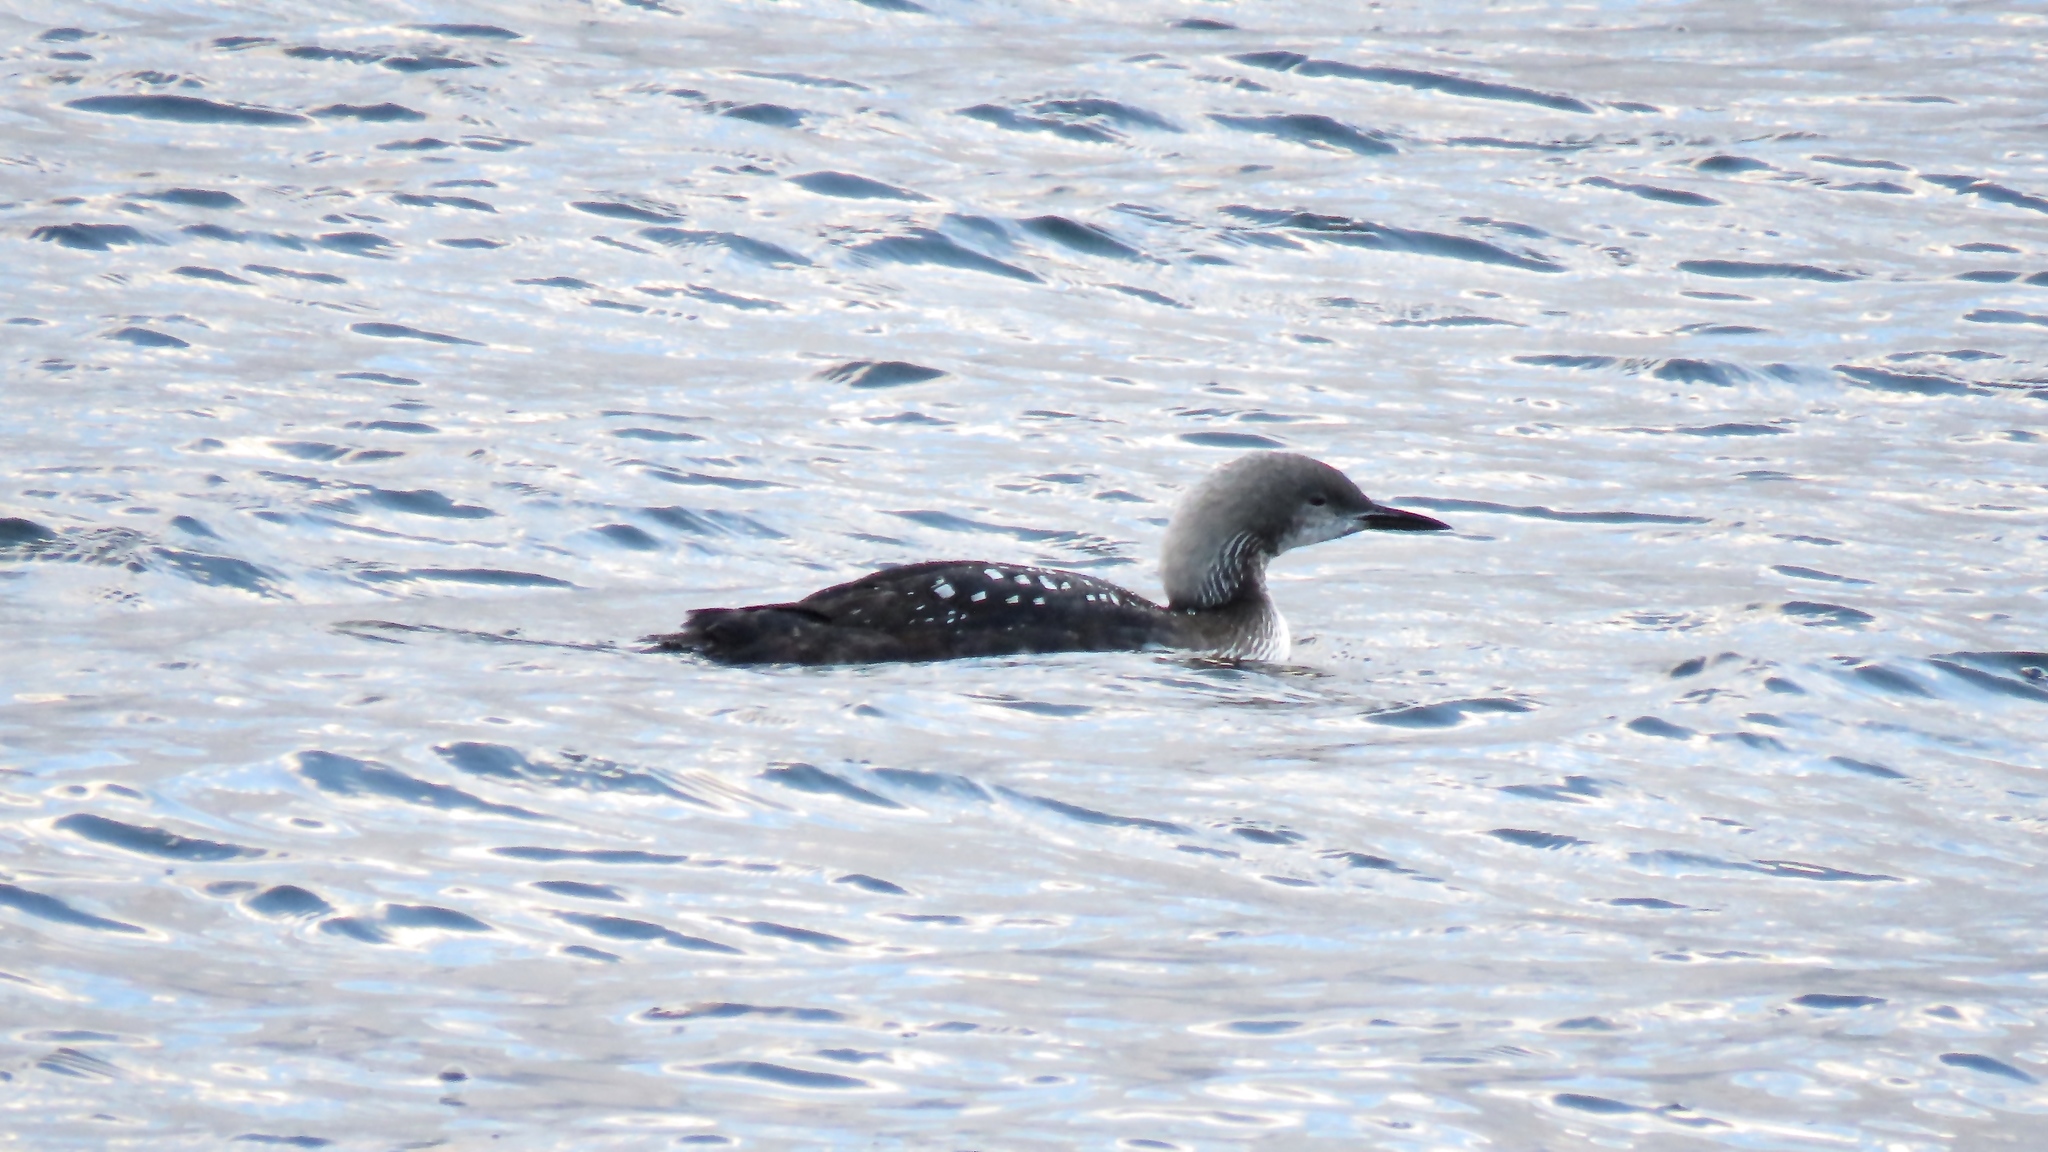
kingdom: Animalia
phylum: Chordata
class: Aves
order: Gaviiformes
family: Gaviidae
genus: Gavia
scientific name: Gavia pacifica
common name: Pacific loon
